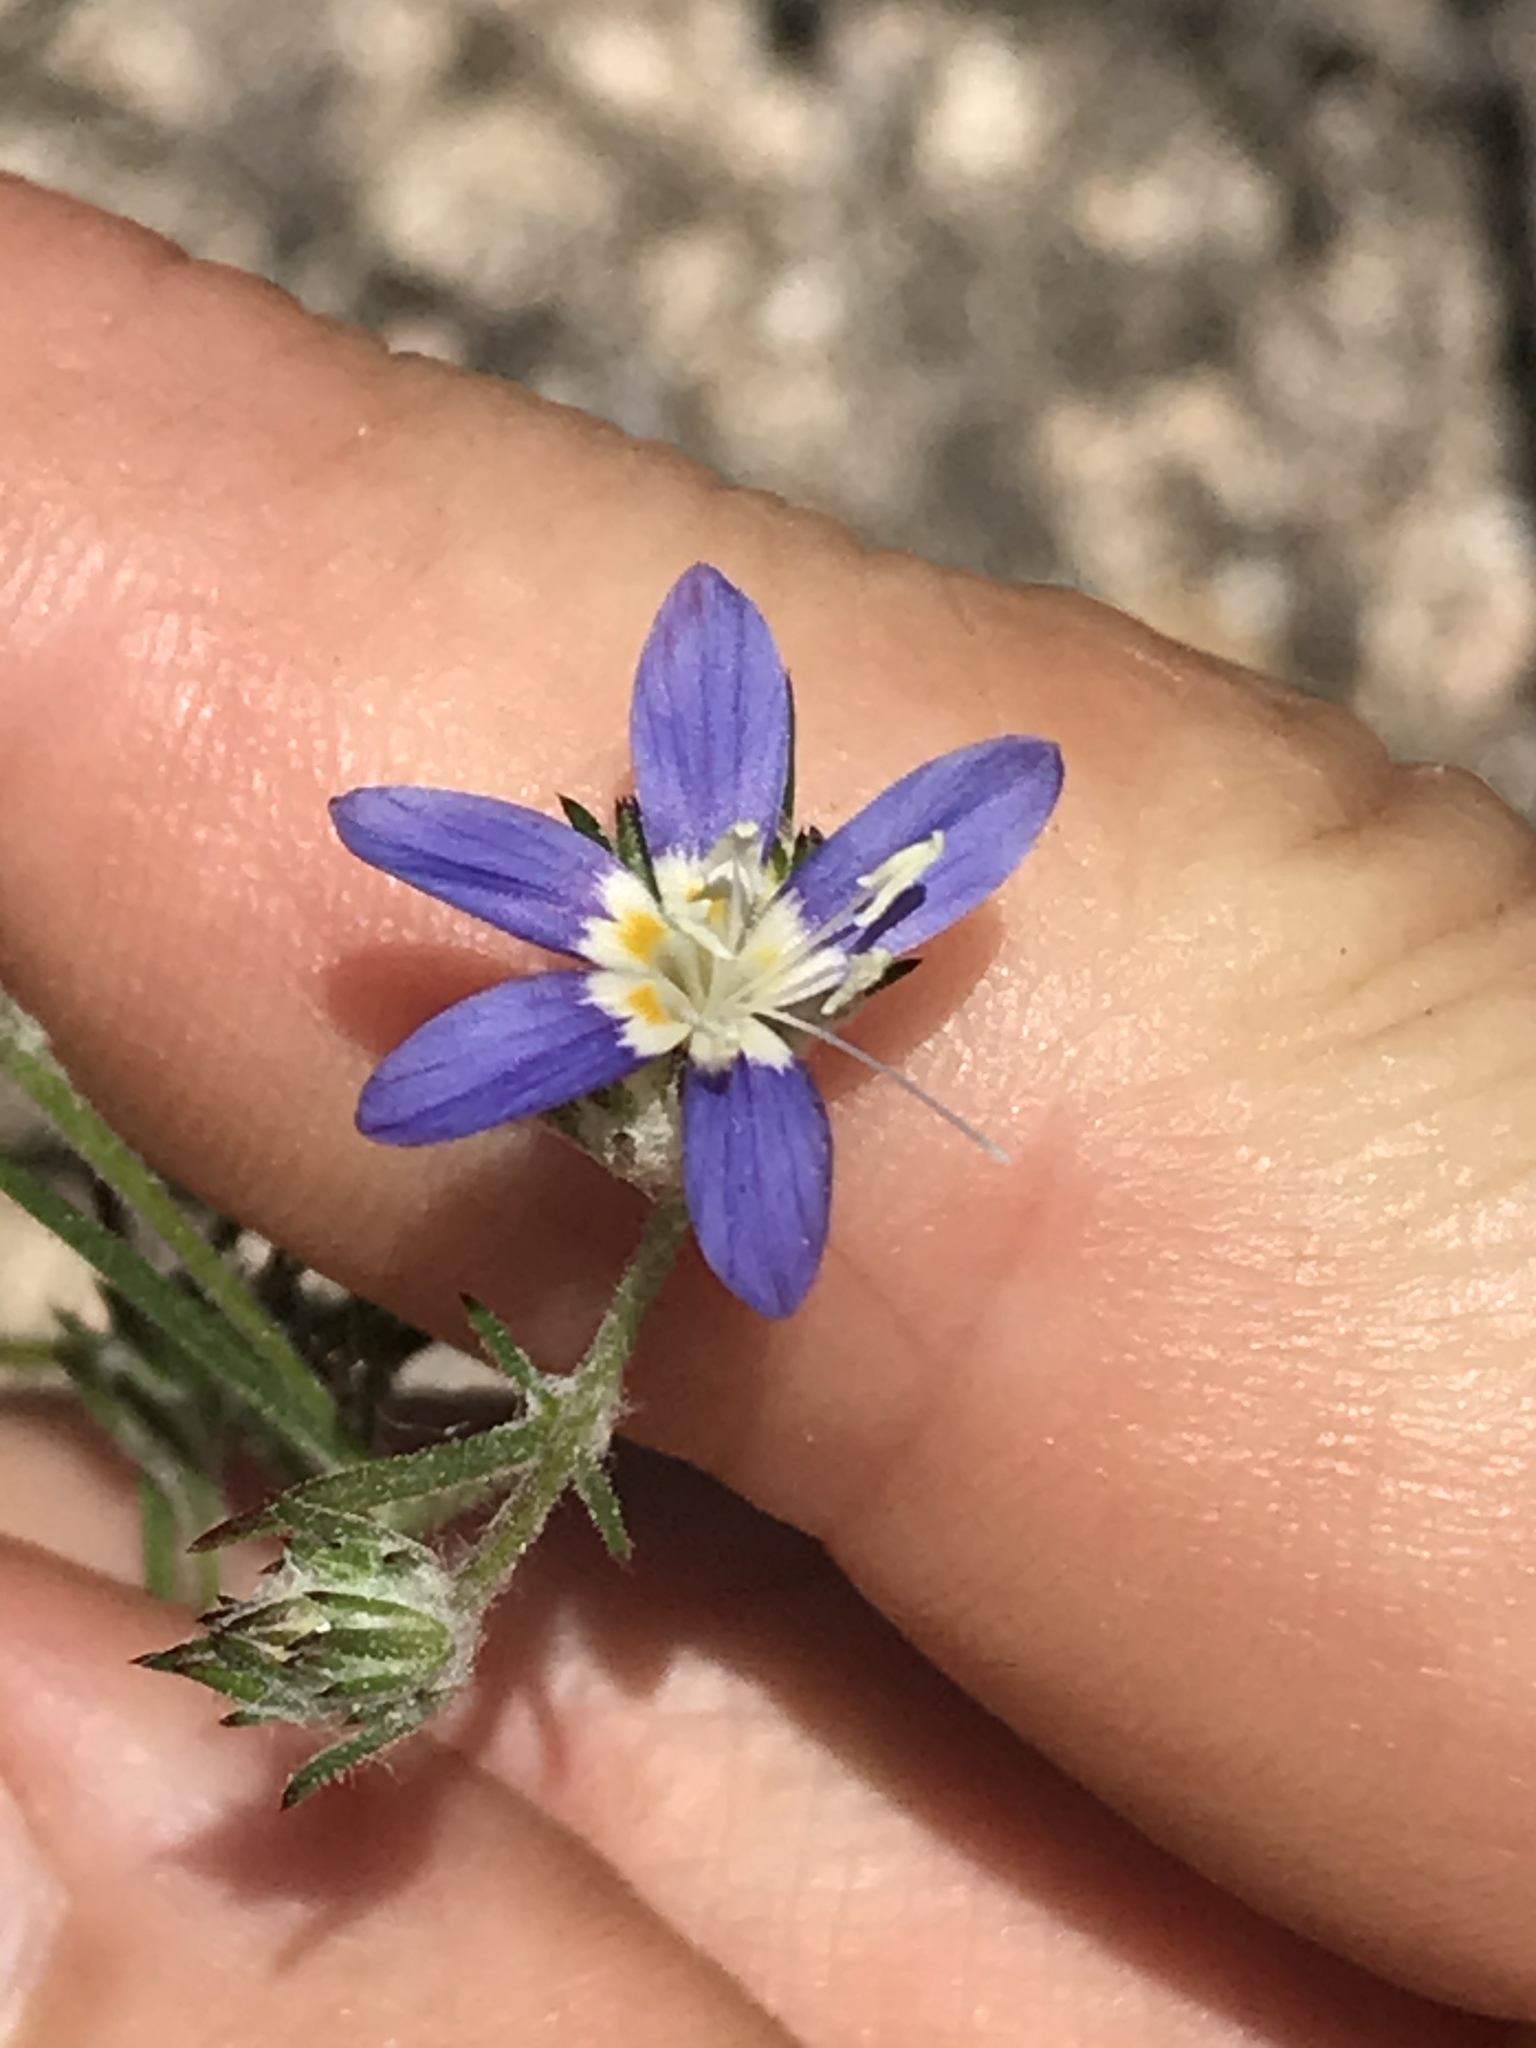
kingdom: Plantae
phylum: Tracheophyta
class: Magnoliopsida
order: Ericales
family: Polemoniaceae
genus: Eriastrum
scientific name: Eriastrum sapphirinum
